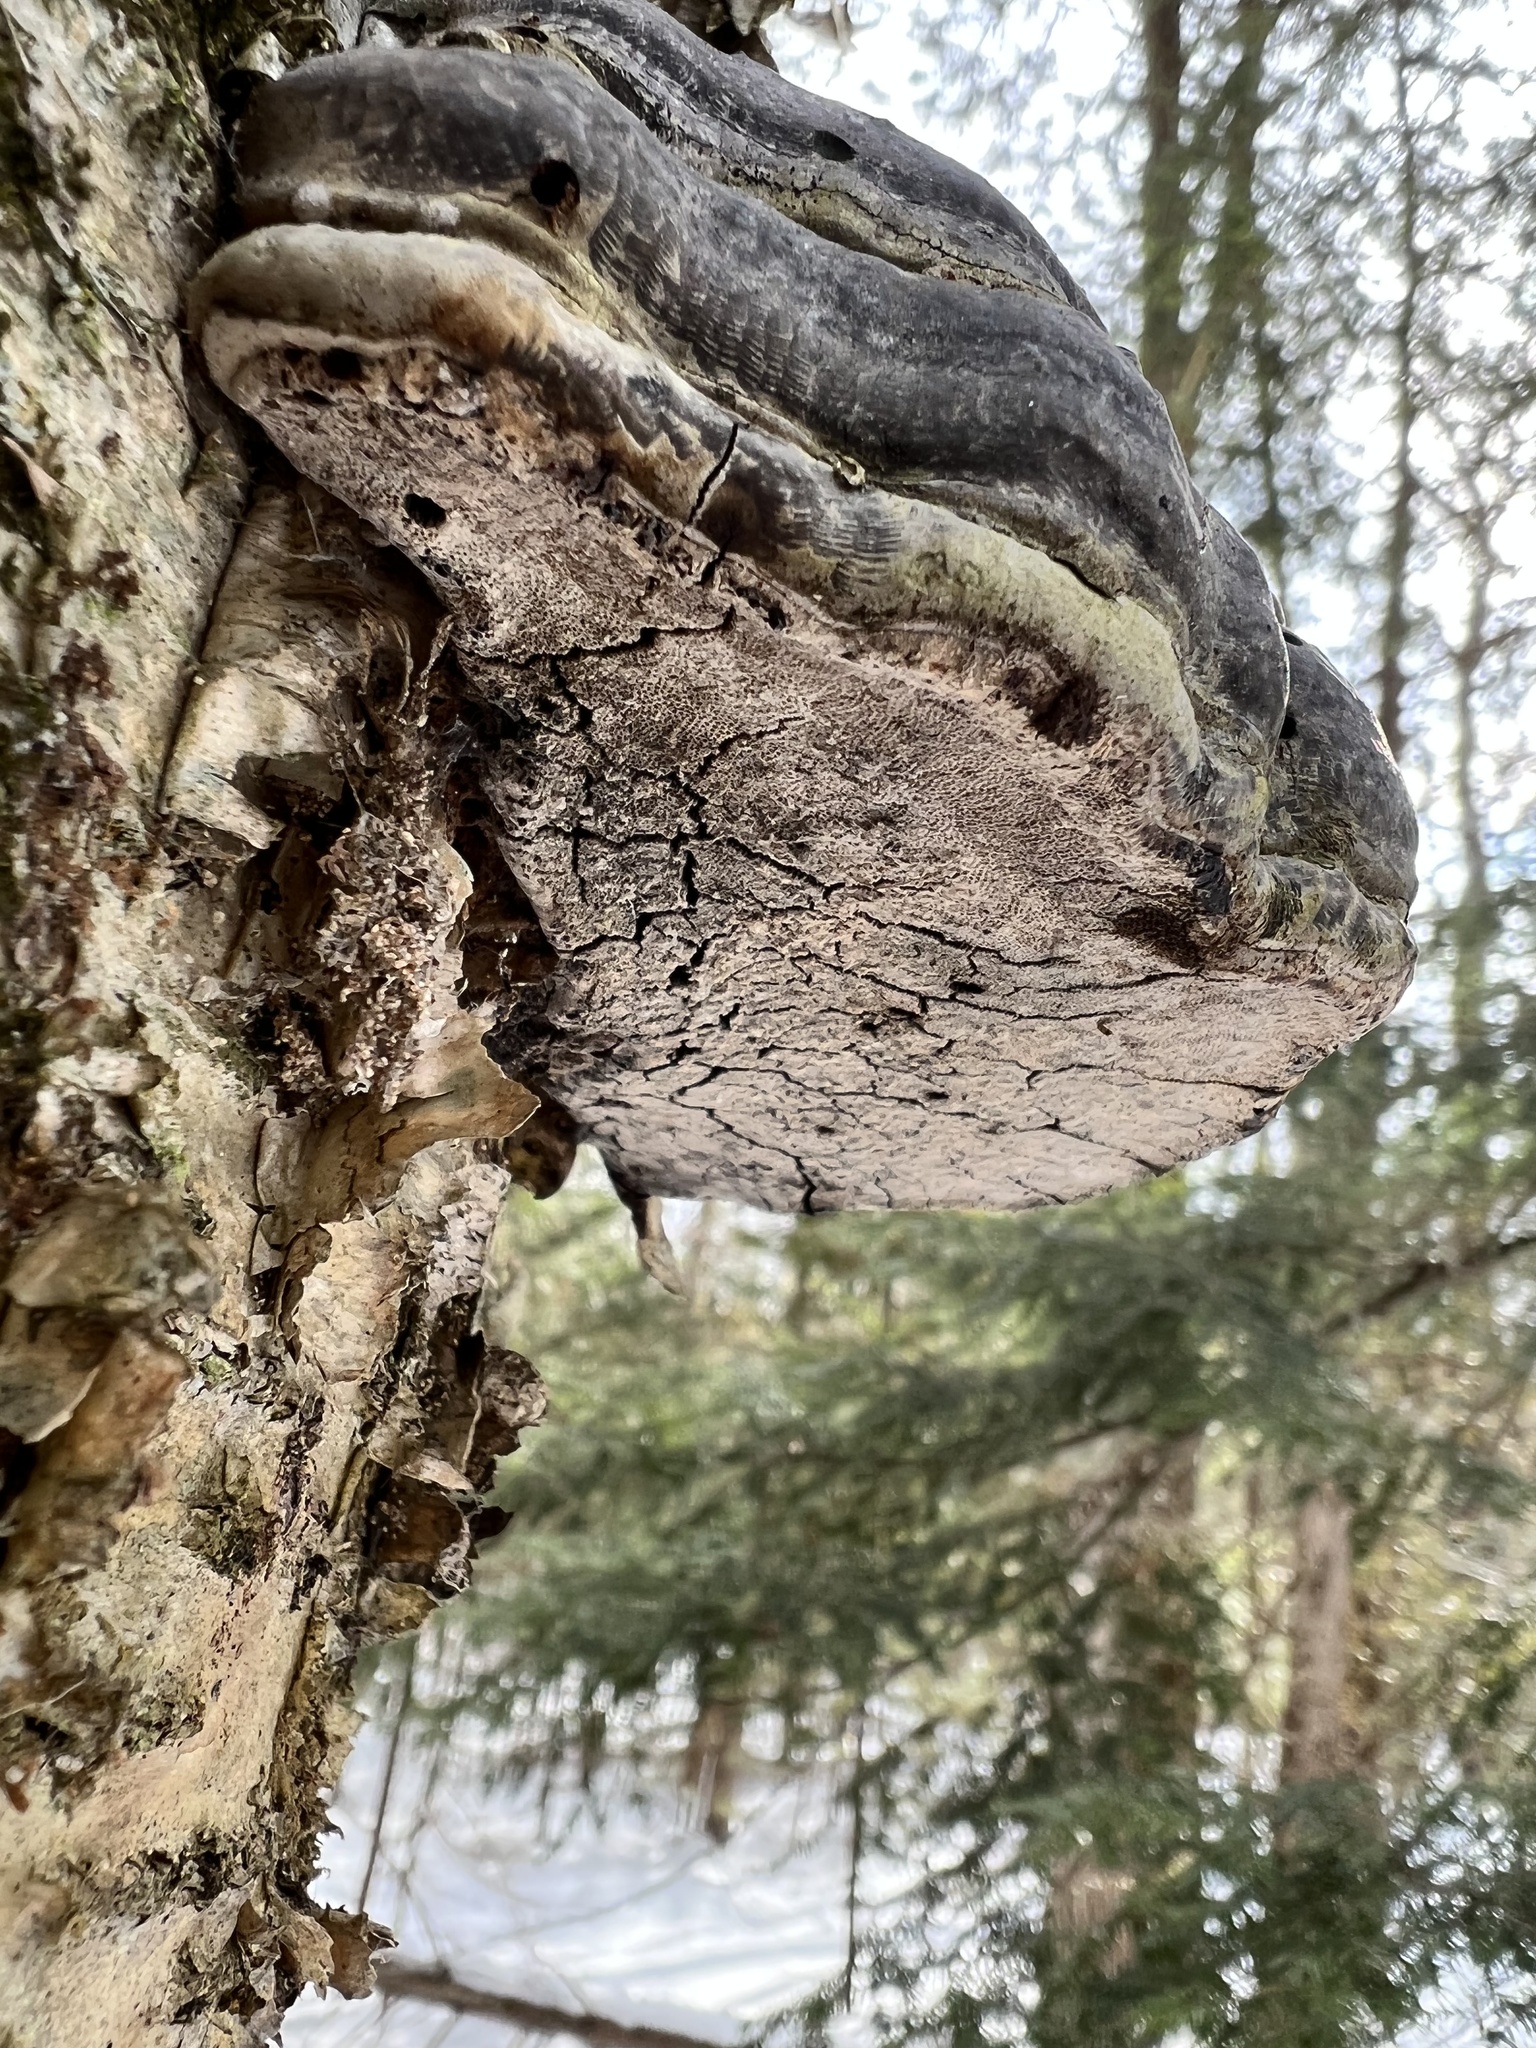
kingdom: Fungi
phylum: Basidiomycota
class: Agaricomycetes
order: Polyporales
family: Polyporaceae
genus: Fomes
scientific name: Fomes fomentarius
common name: Hoof fungus
